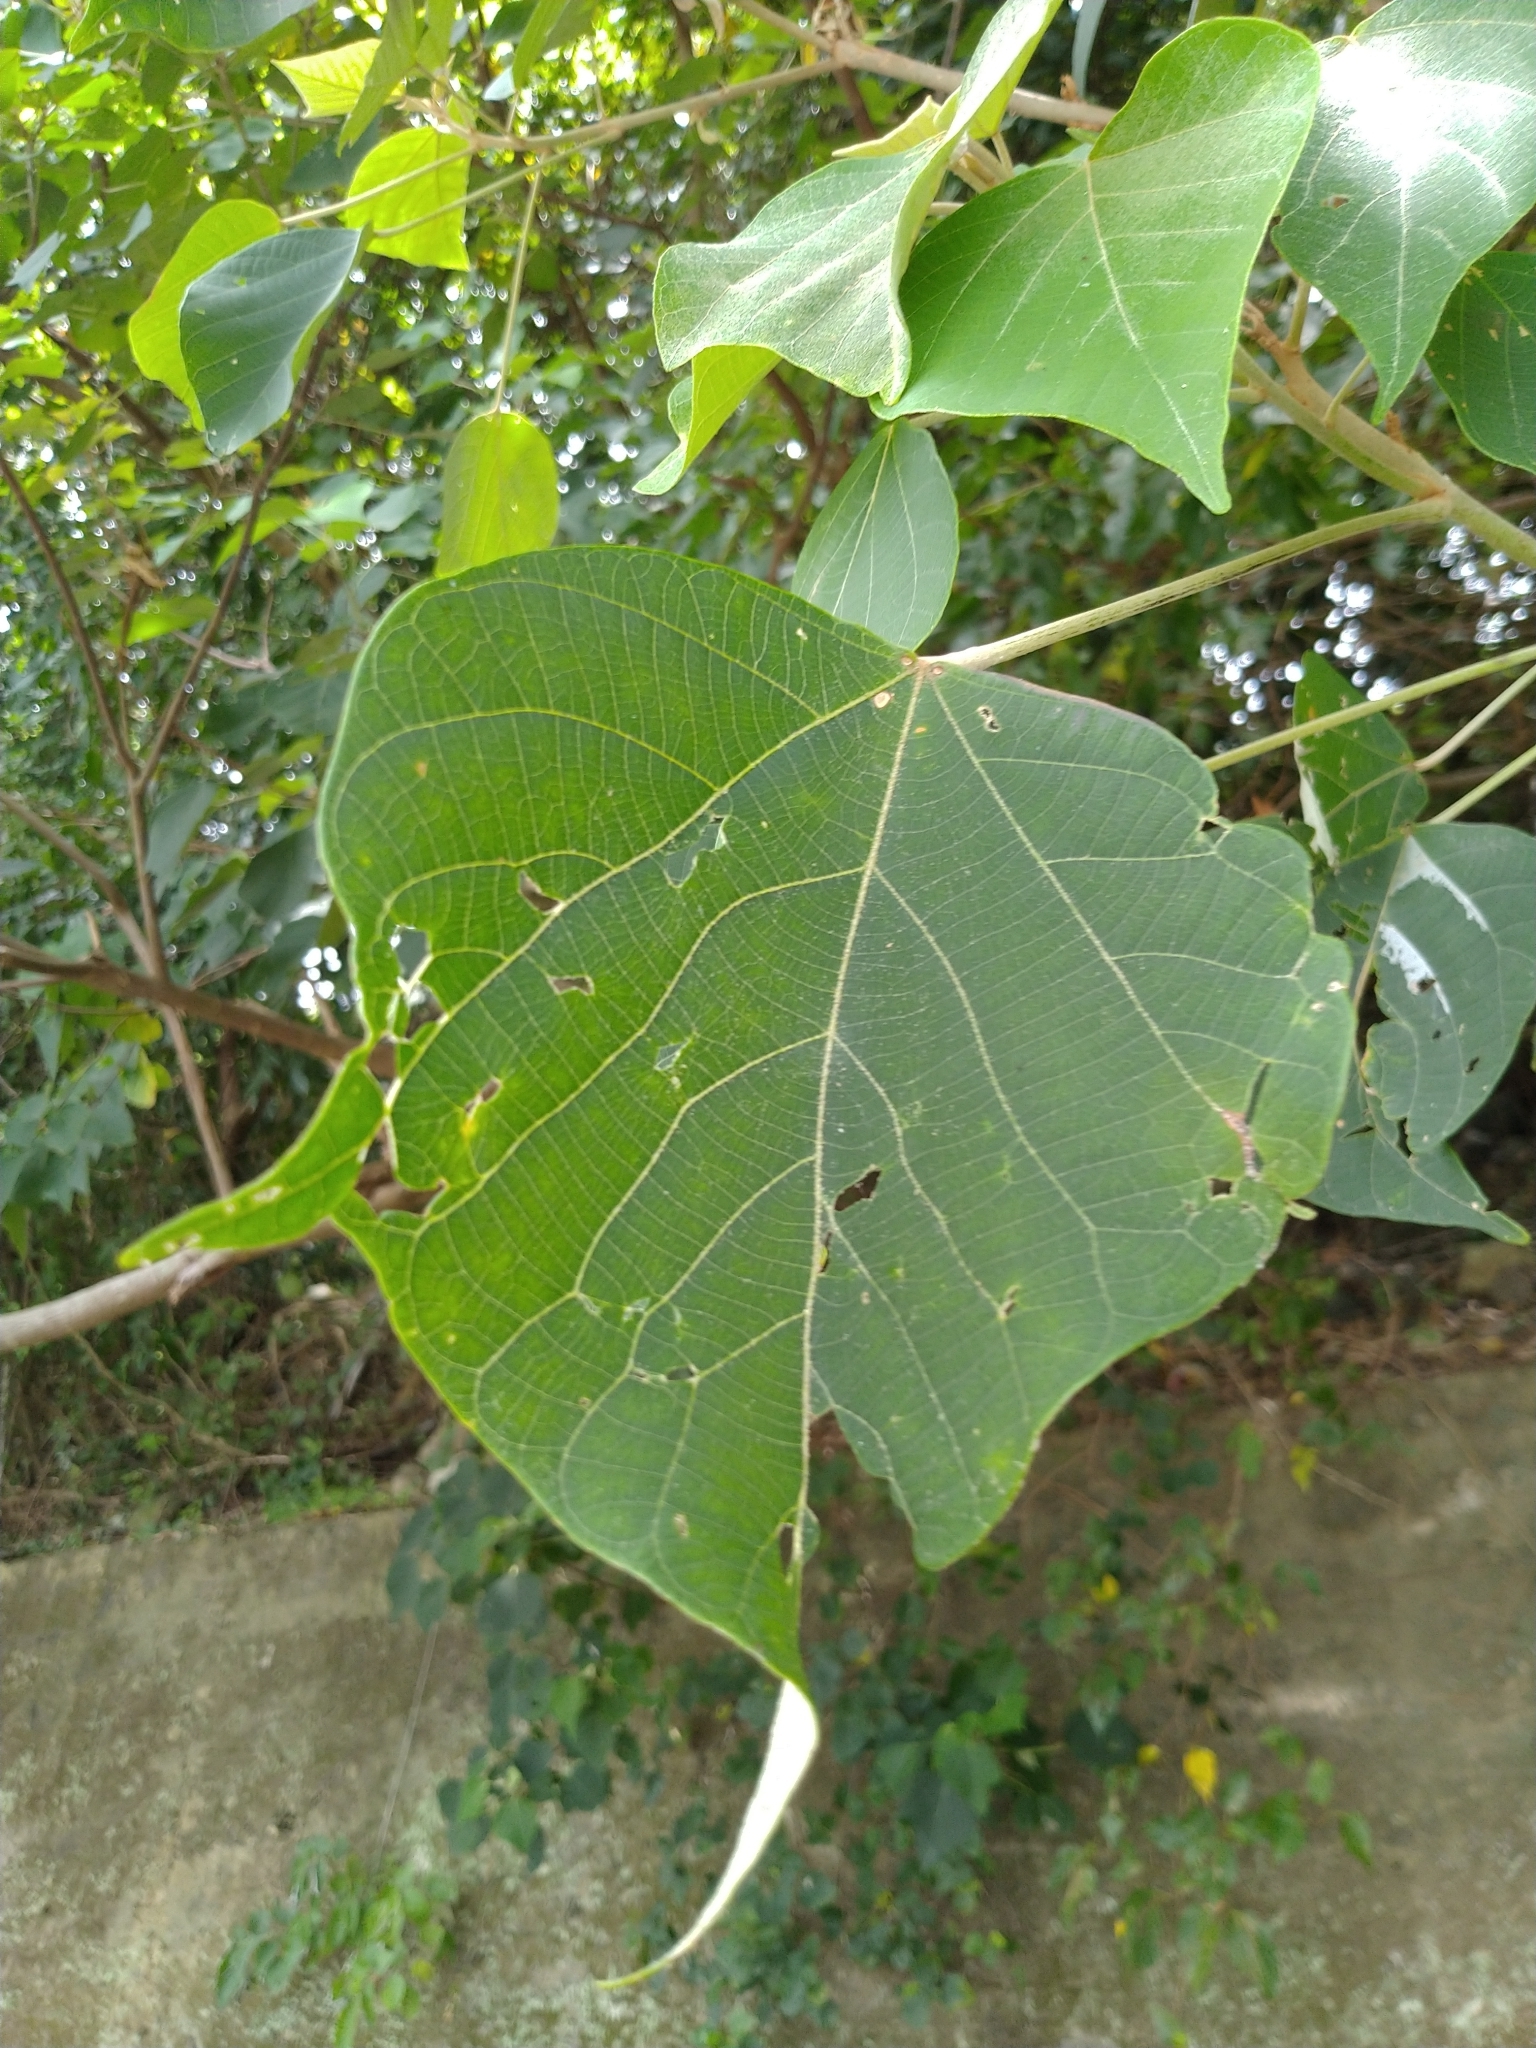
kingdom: Plantae
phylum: Tracheophyta
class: Magnoliopsida
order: Malpighiales
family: Euphorbiaceae
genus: Mallotus
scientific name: Mallotus japonicus
